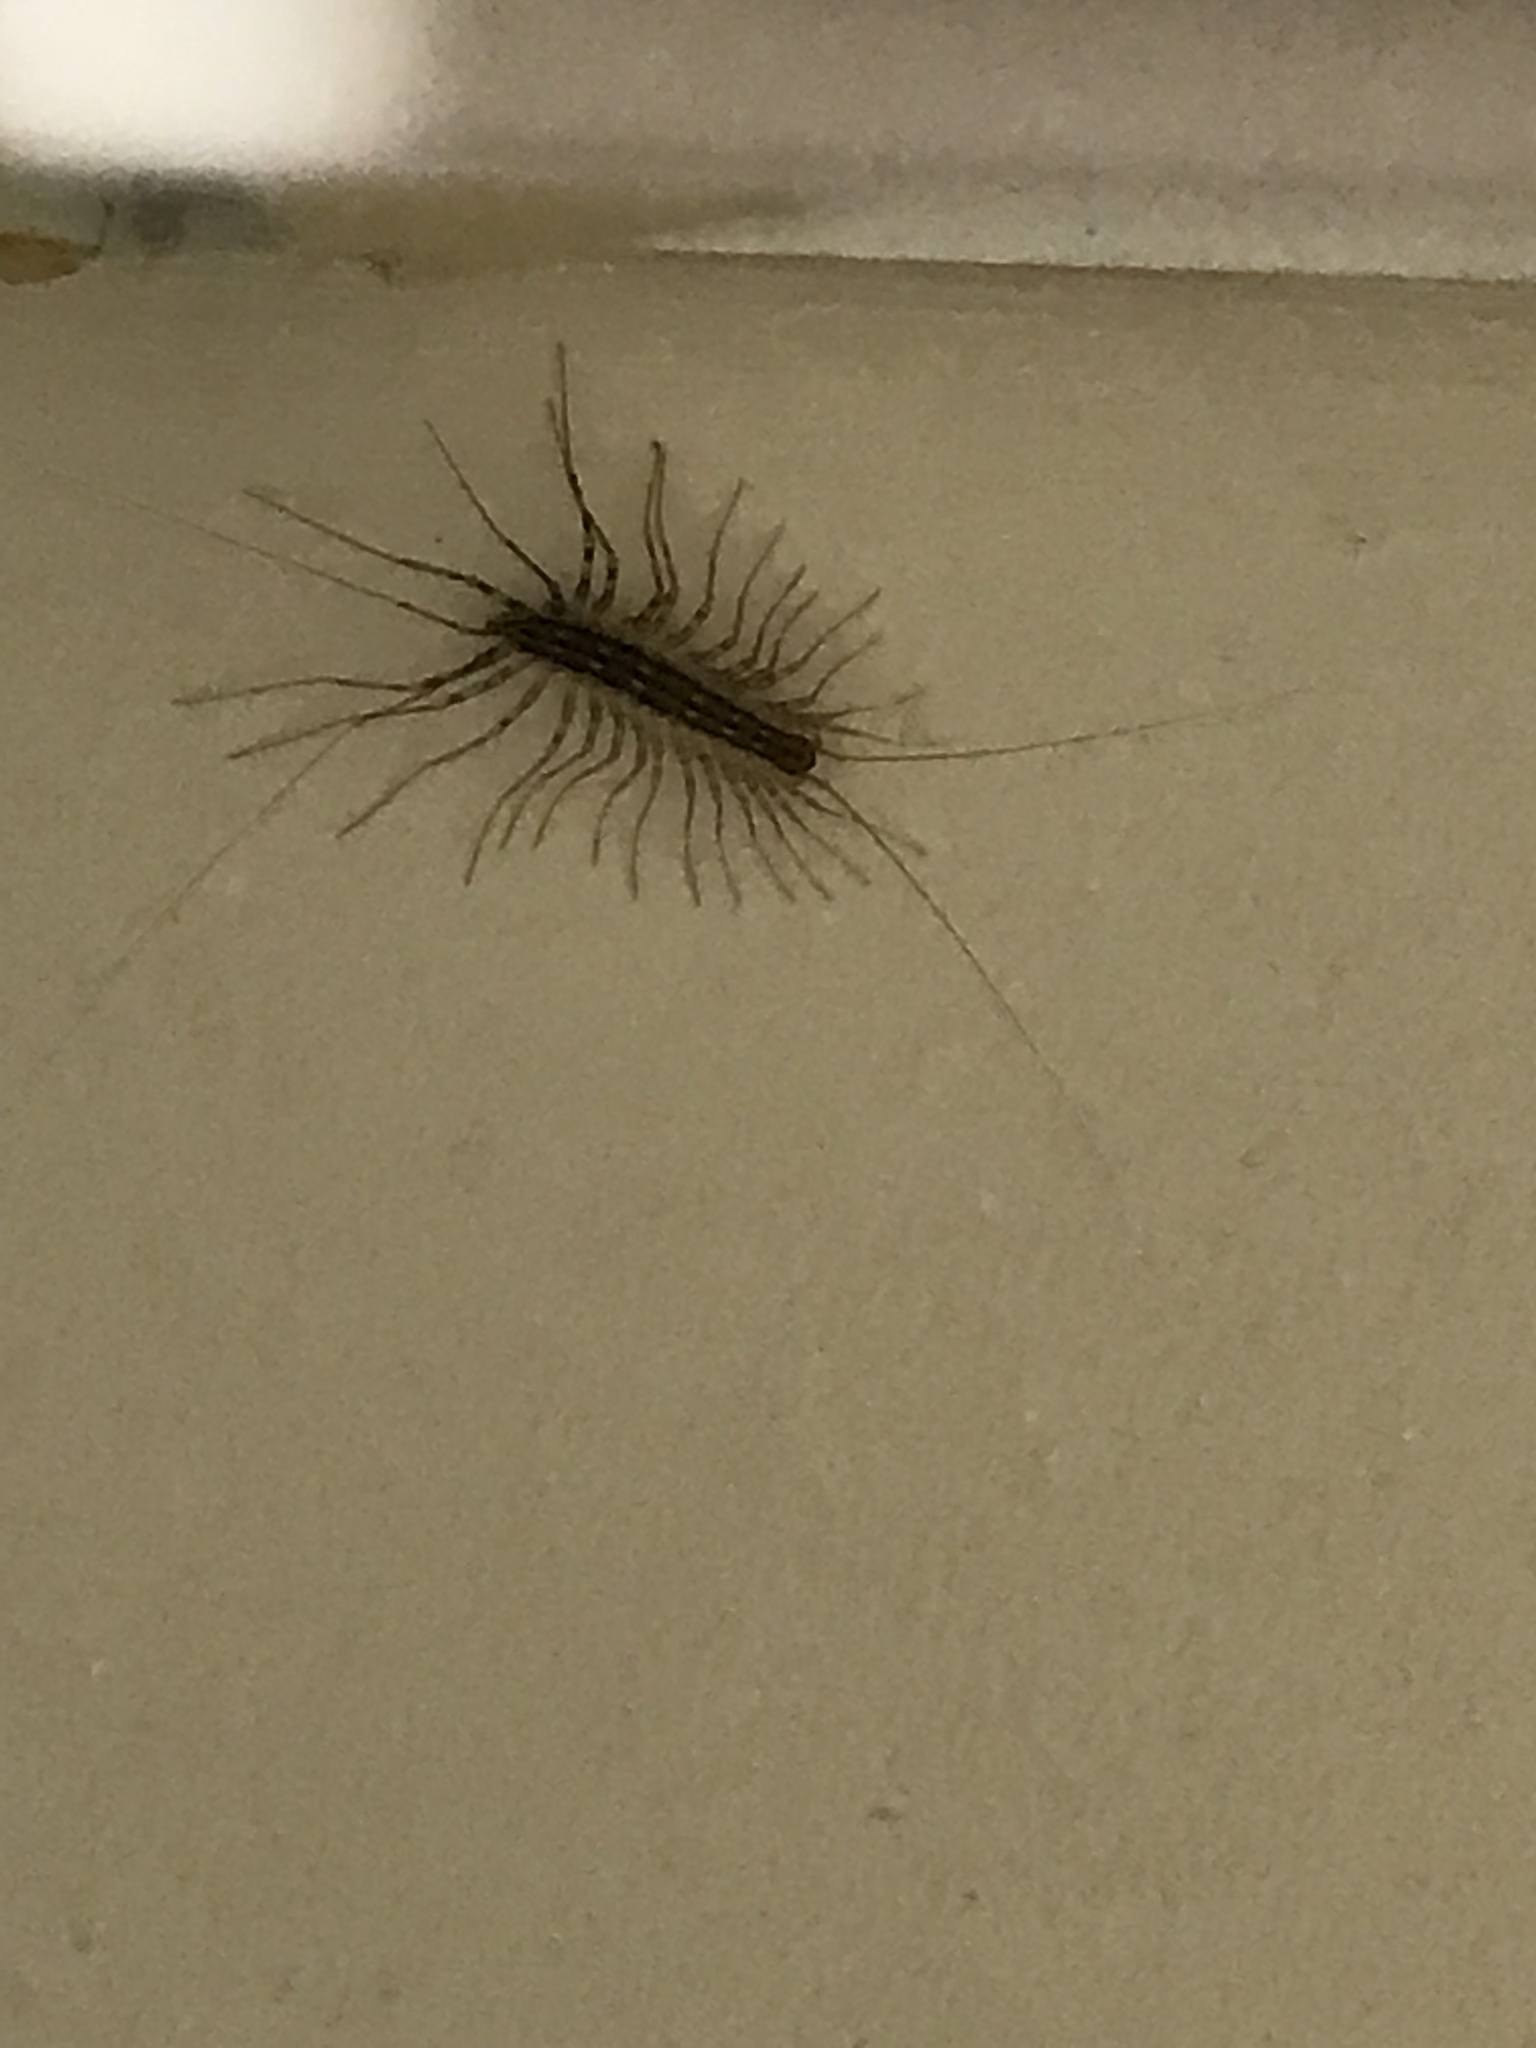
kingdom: Animalia
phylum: Arthropoda
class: Chilopoda
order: Scutigeromorpha
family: Scutigeridae
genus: Scutigera
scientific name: Scutigera coleoptrata
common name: House centipede
